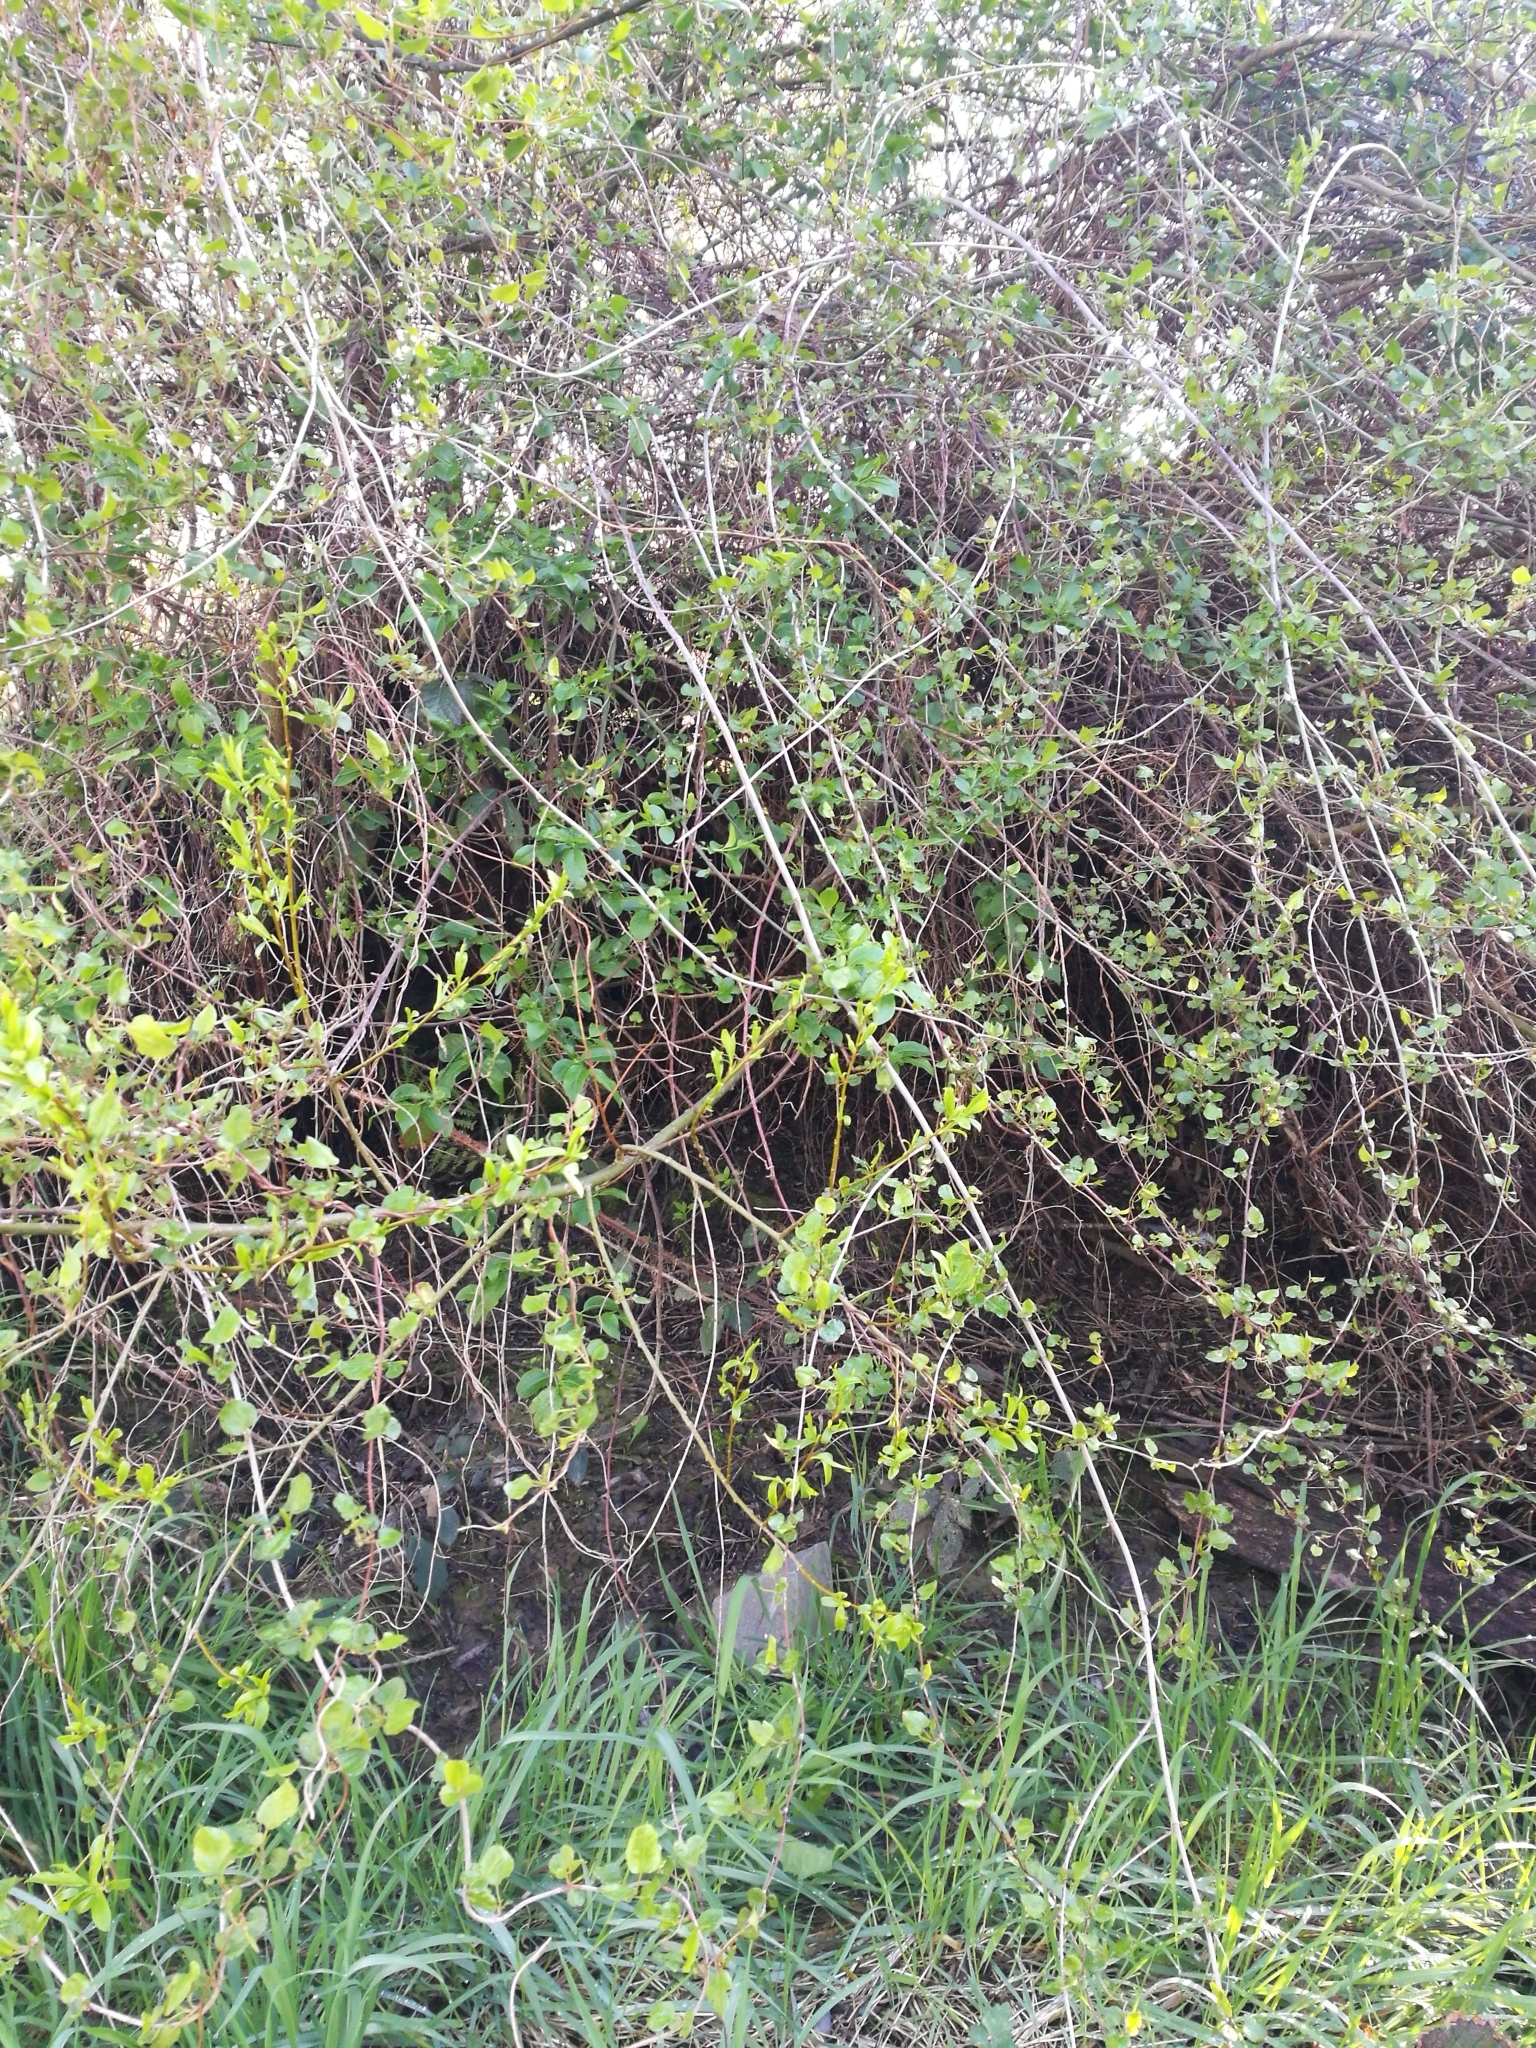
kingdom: Plantae
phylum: Tracheophyta
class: Magnoliopsida
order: Caryophyllales
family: Polygonaceae
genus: Muehlenbeckia
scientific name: Muehlenbeckia australis
